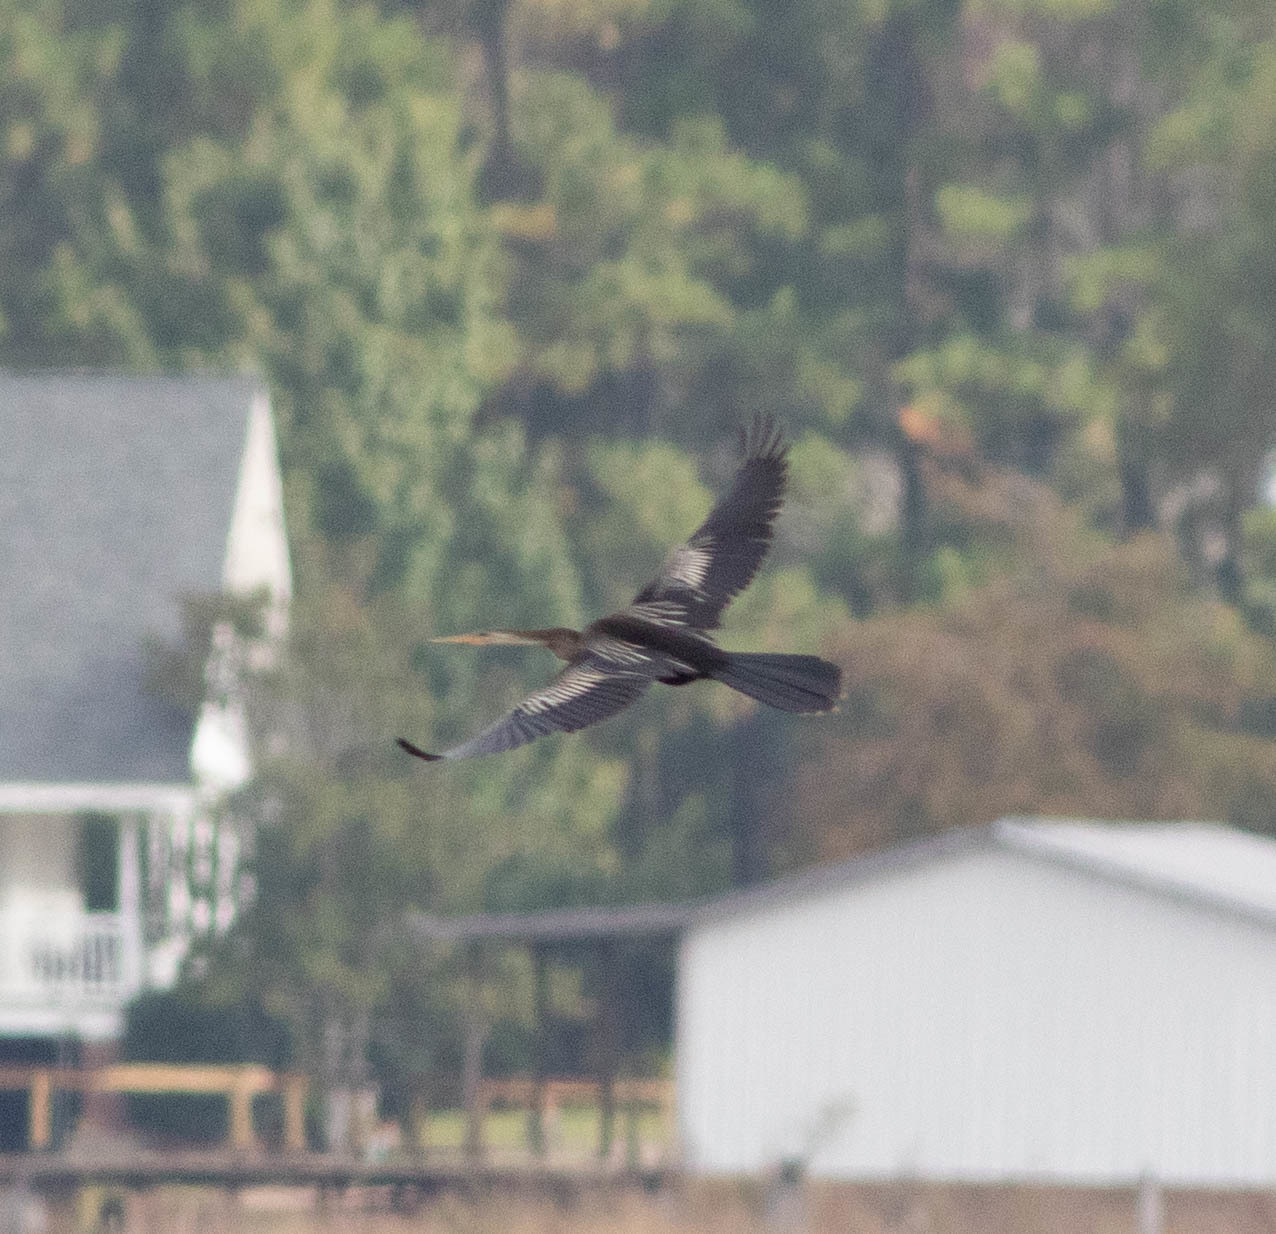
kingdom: Animalia
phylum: Chordata
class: Aves
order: Suliformes
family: Anhingidae
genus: Anhinga
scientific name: Anhinga anhinga
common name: Anhinga
